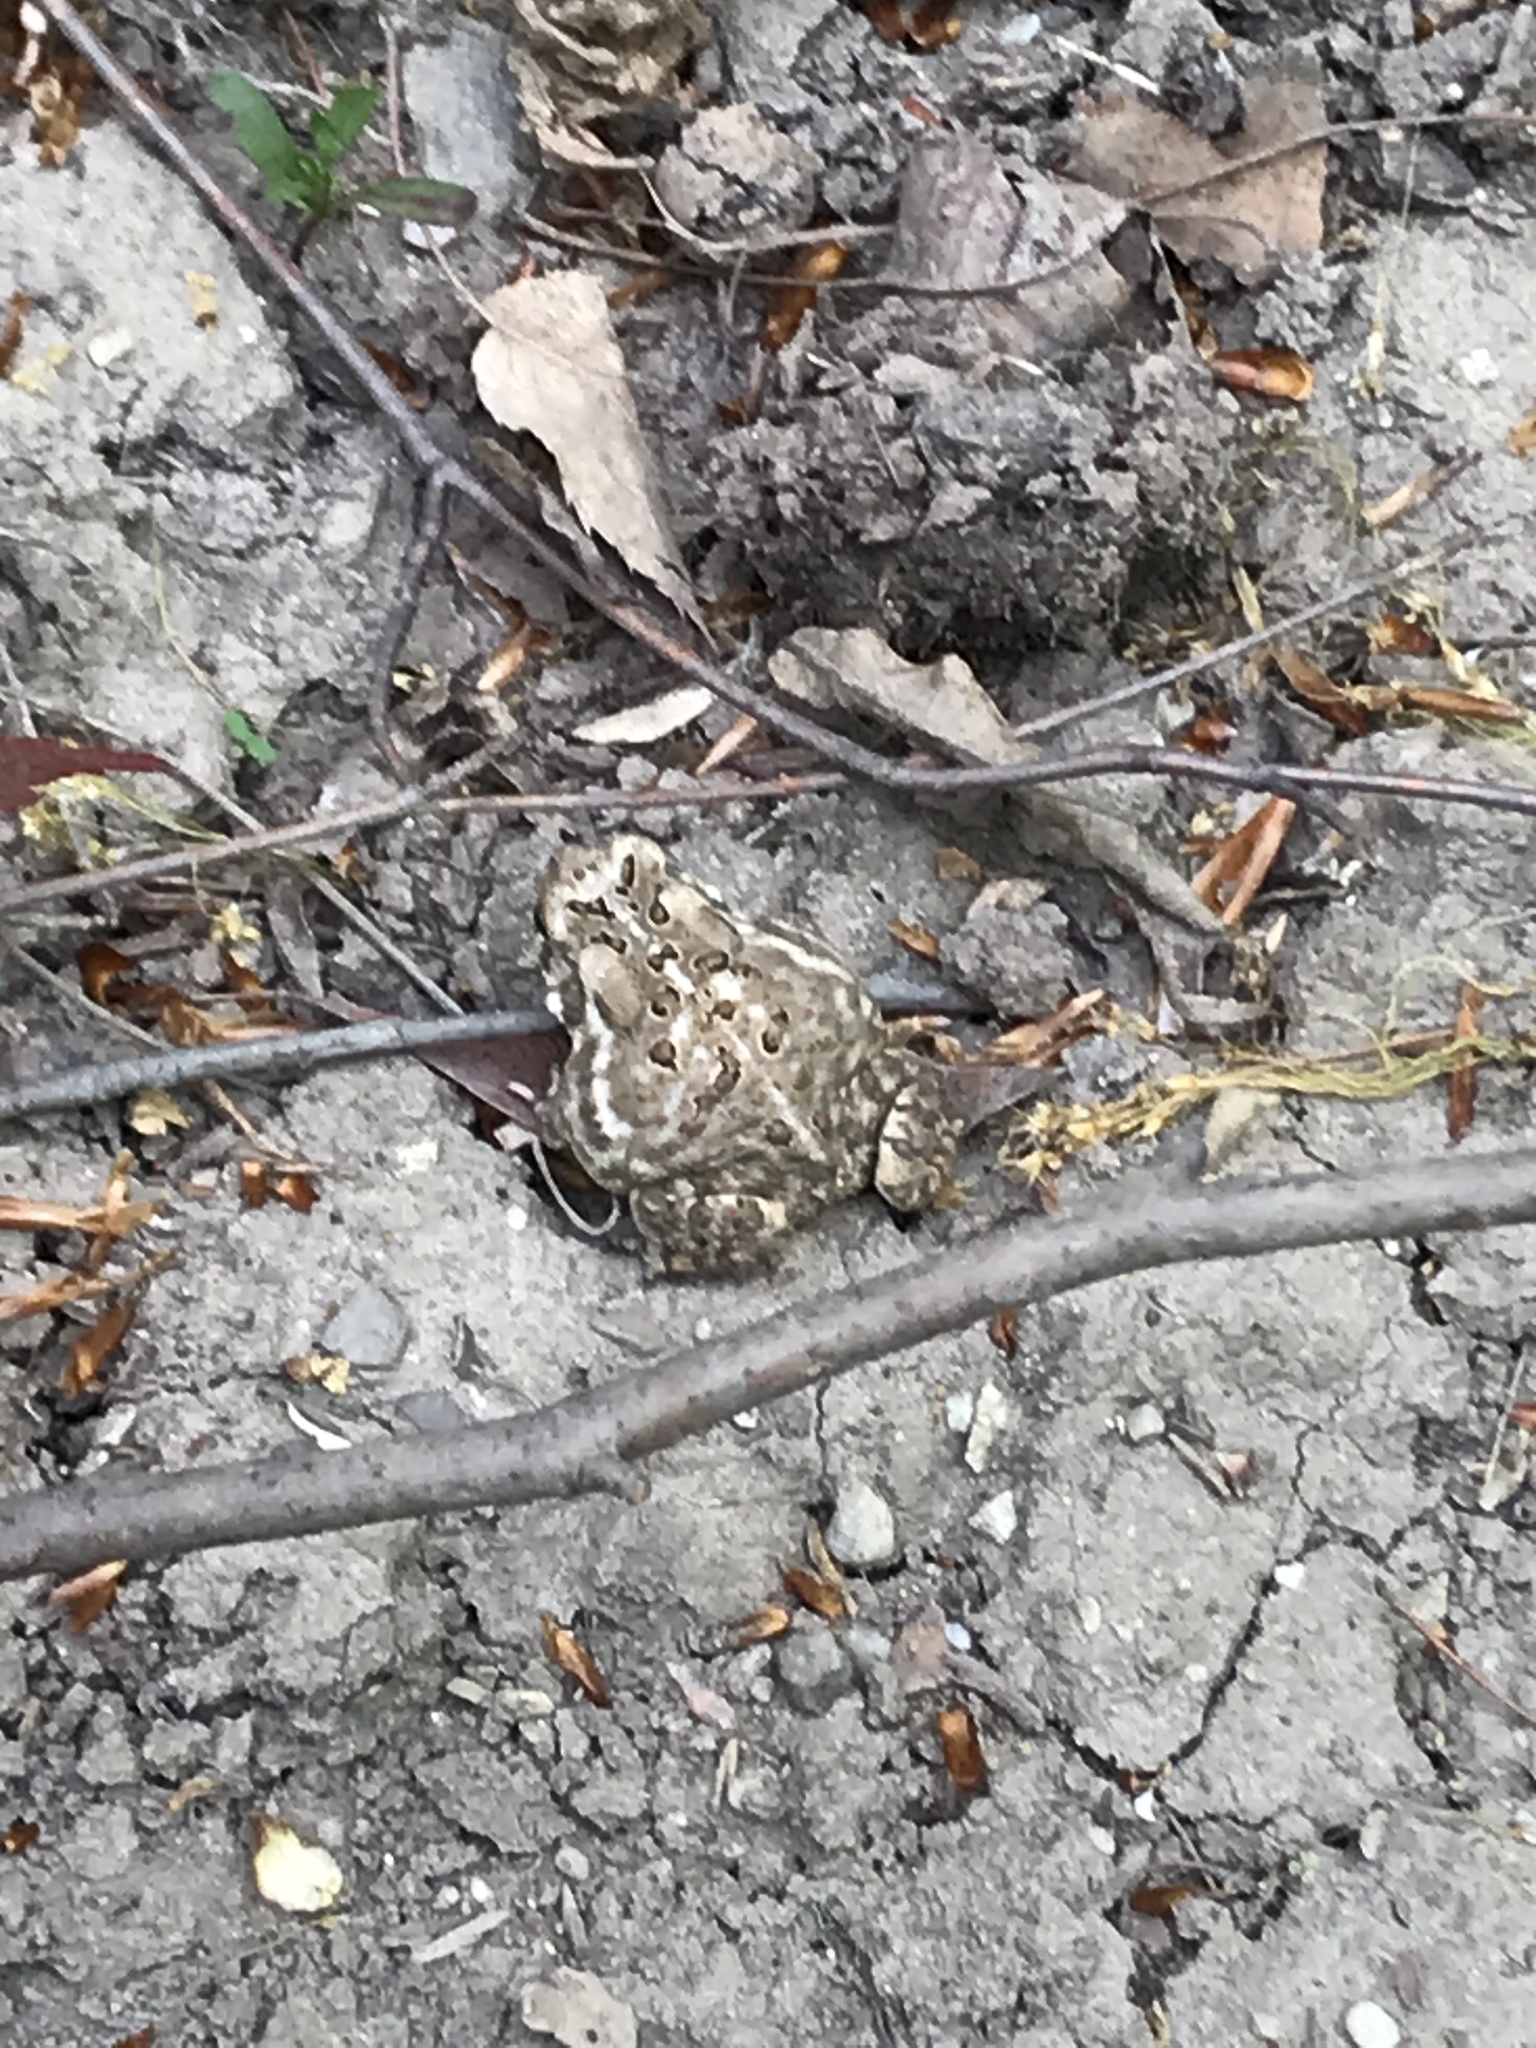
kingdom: Animalia
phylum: Chordata
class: Amphibia
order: Anura
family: Bufonidae
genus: Anaxyrus
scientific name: Anaxyrus americanus
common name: American toad
